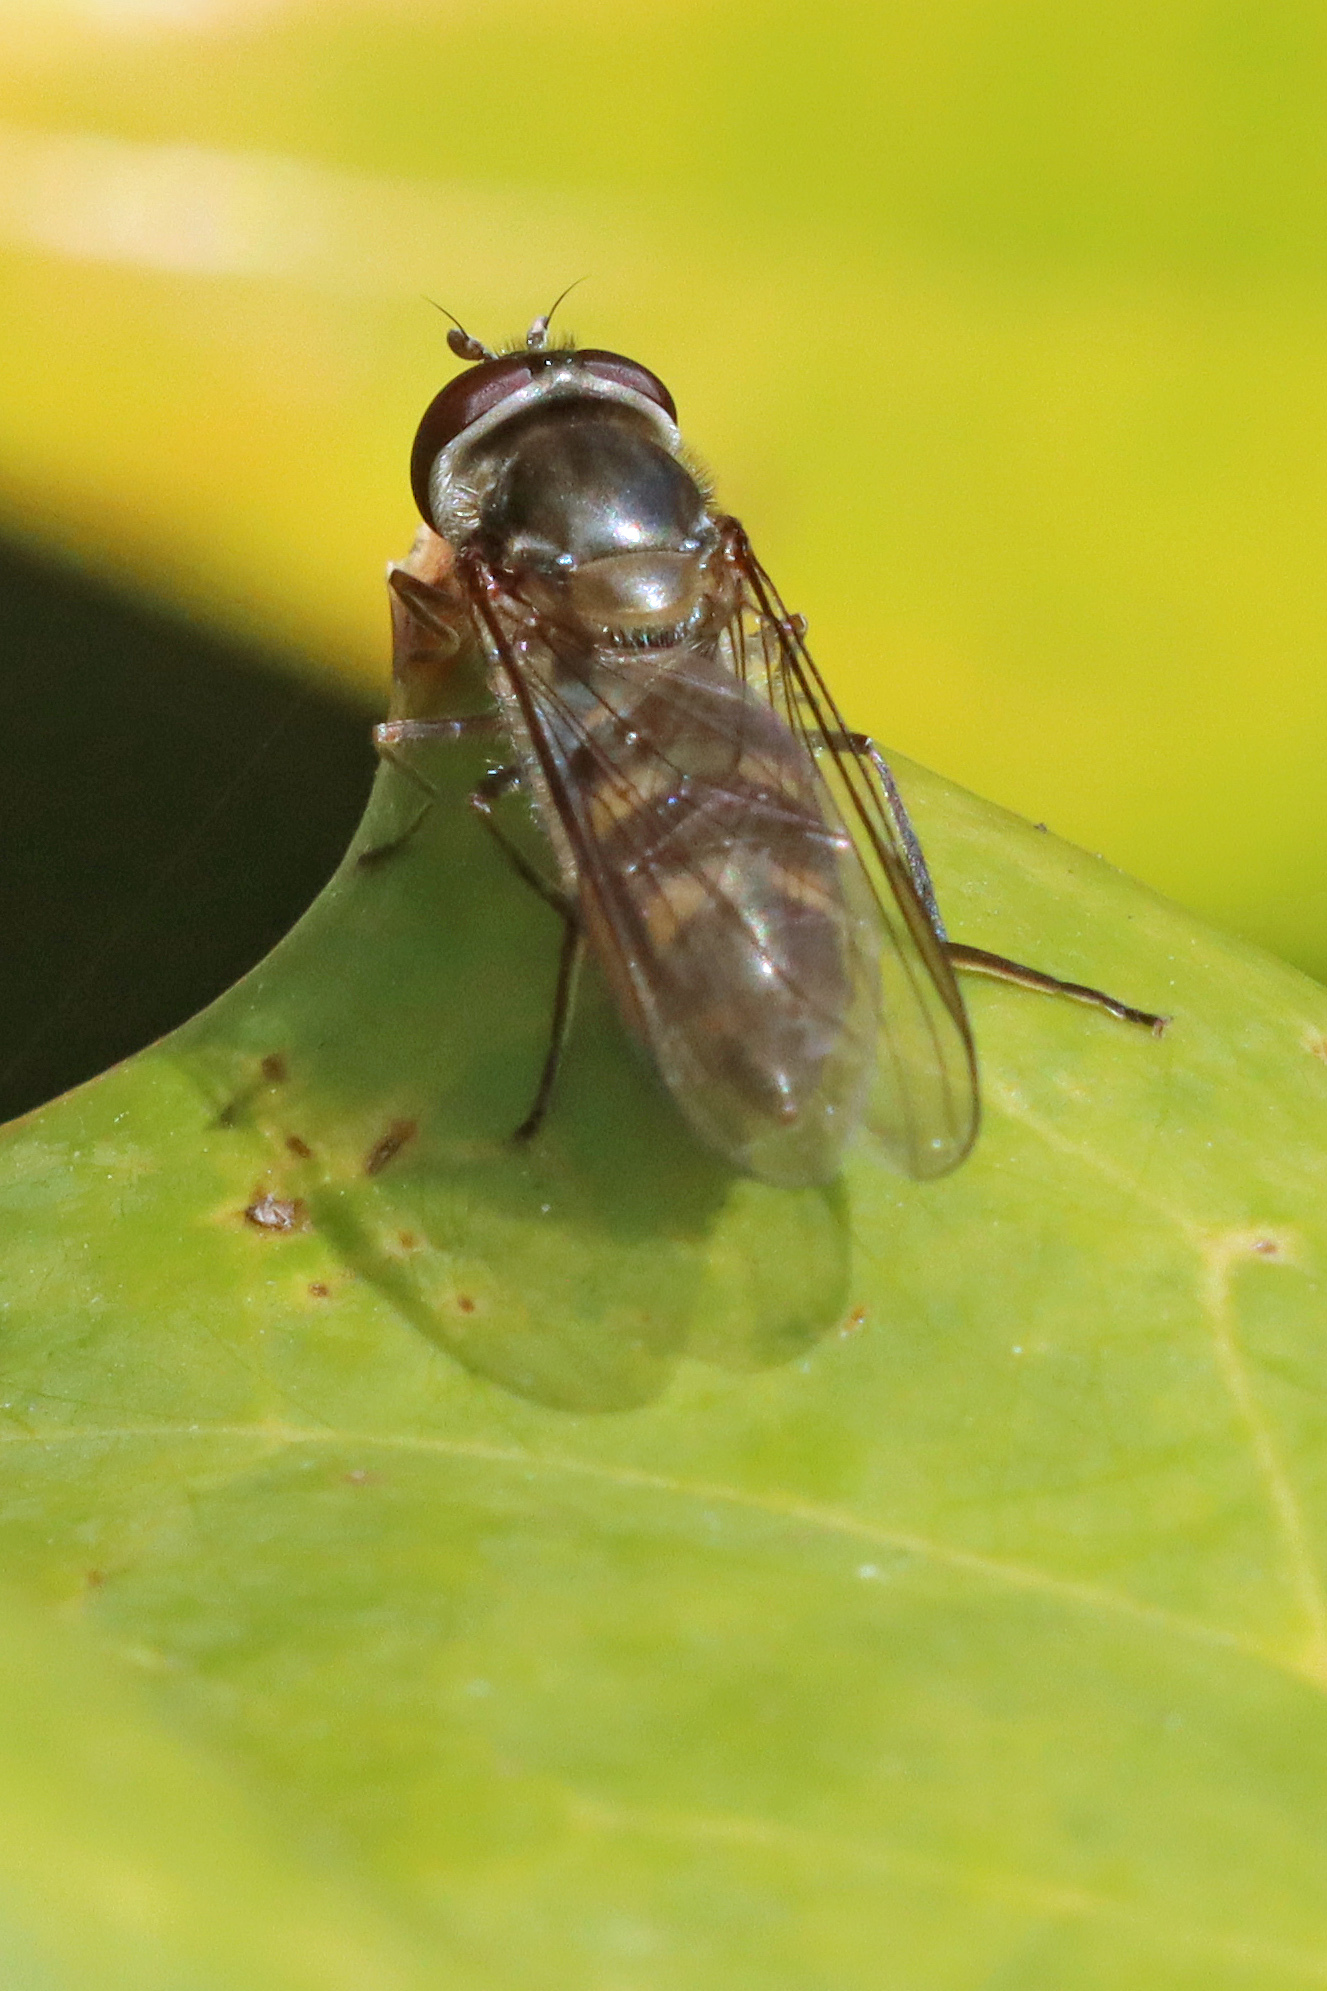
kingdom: Animalia
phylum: Arthropoda
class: Insecta
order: Diptera
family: Syrphidae
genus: Meliscaeva
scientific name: Meliscaeva auricollis
